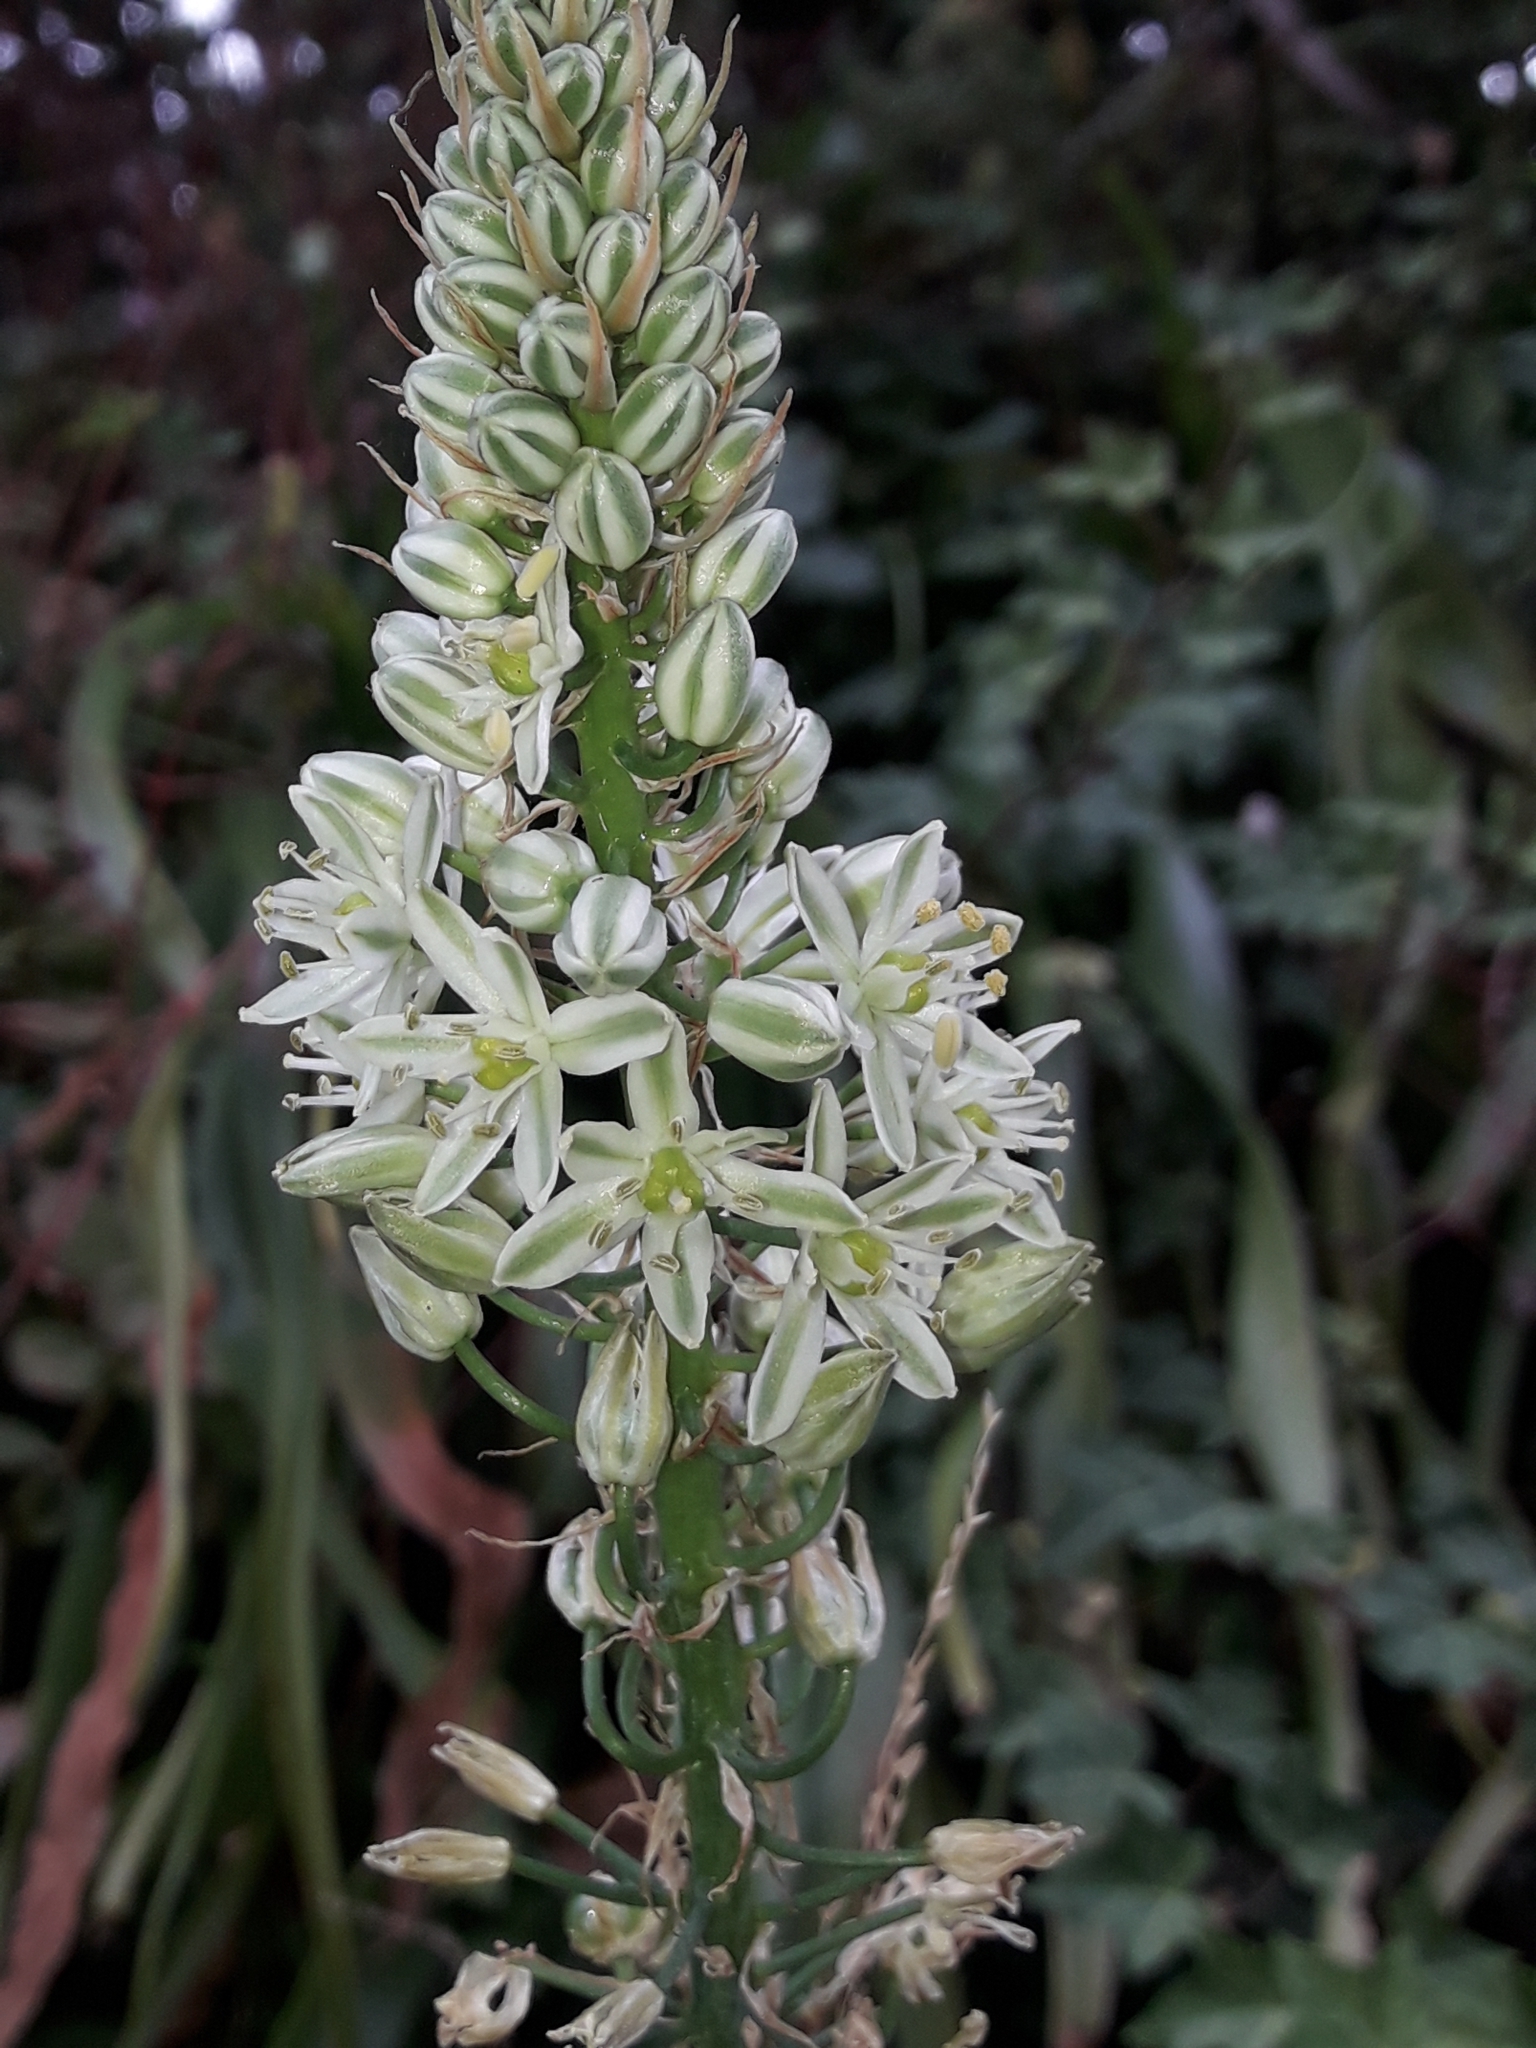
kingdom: Plantae
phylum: Tracheophyta
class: Liliopsida
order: Asparagales
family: Asparagaceae
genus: Albuca
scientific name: Albuca bracteata
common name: Sea-onion
